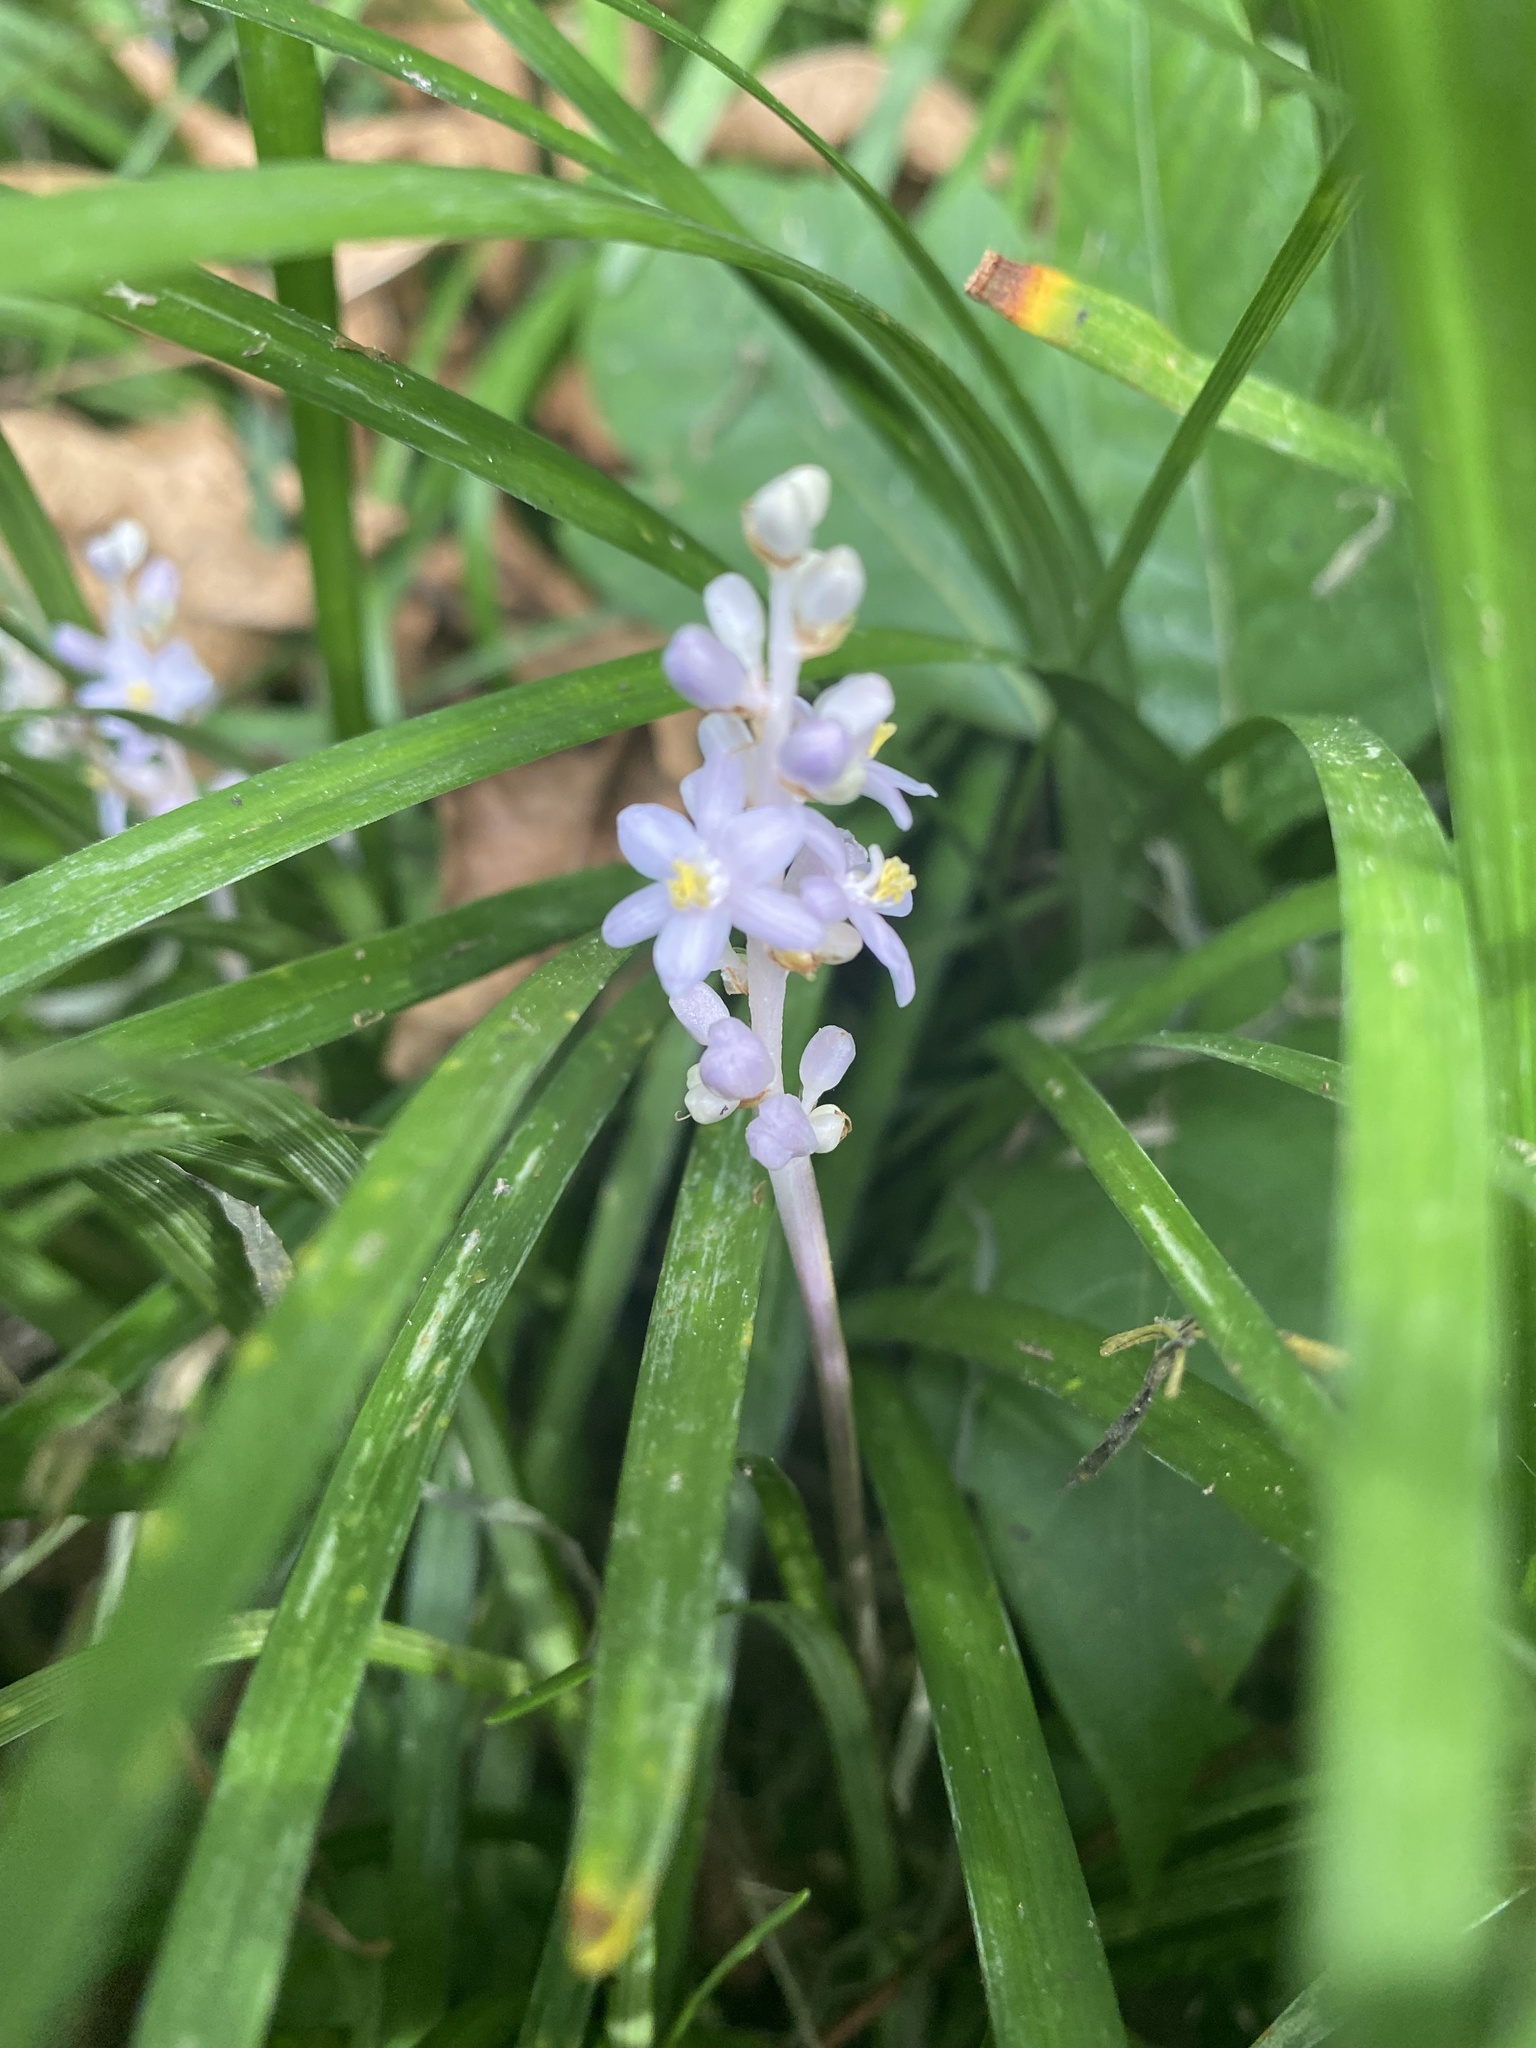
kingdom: Plantae
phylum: Tracheophyta
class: Liliopsida
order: Asparagales
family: Asparagaceae
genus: Liriope
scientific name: Liriope spicata
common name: Creeping liriope
